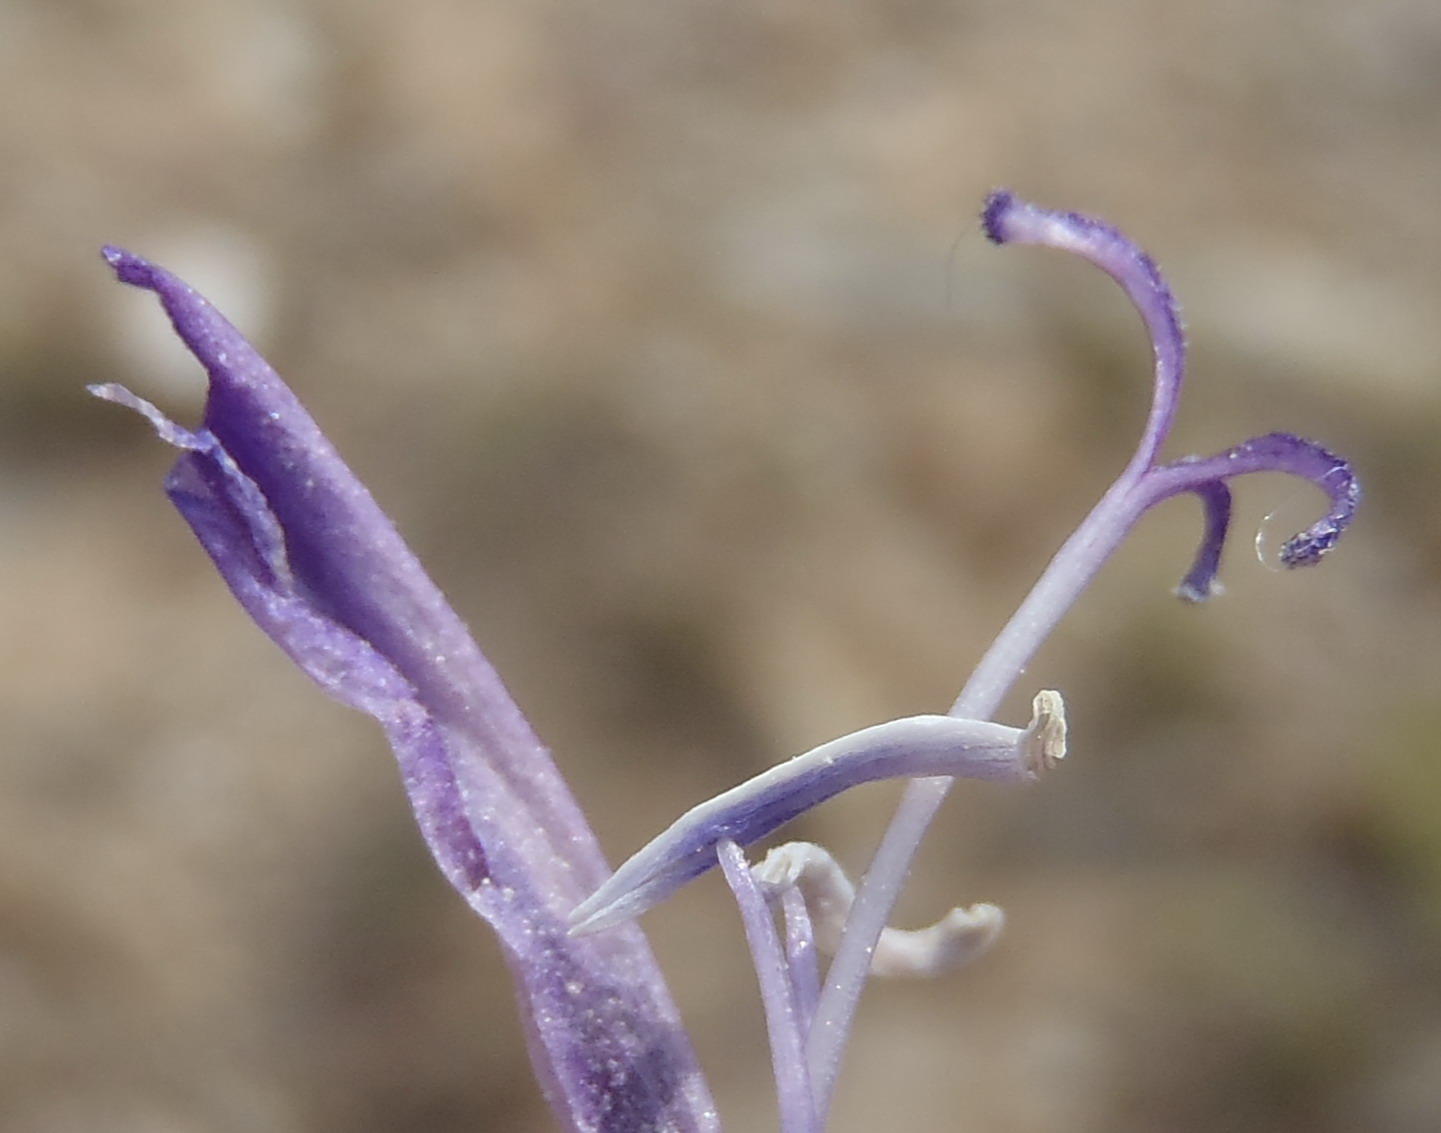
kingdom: Plantae
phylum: Tracheophyta
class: Liliopsida
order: Asparagales
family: Iridaceae
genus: Babiana
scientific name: Babiana sambucina
